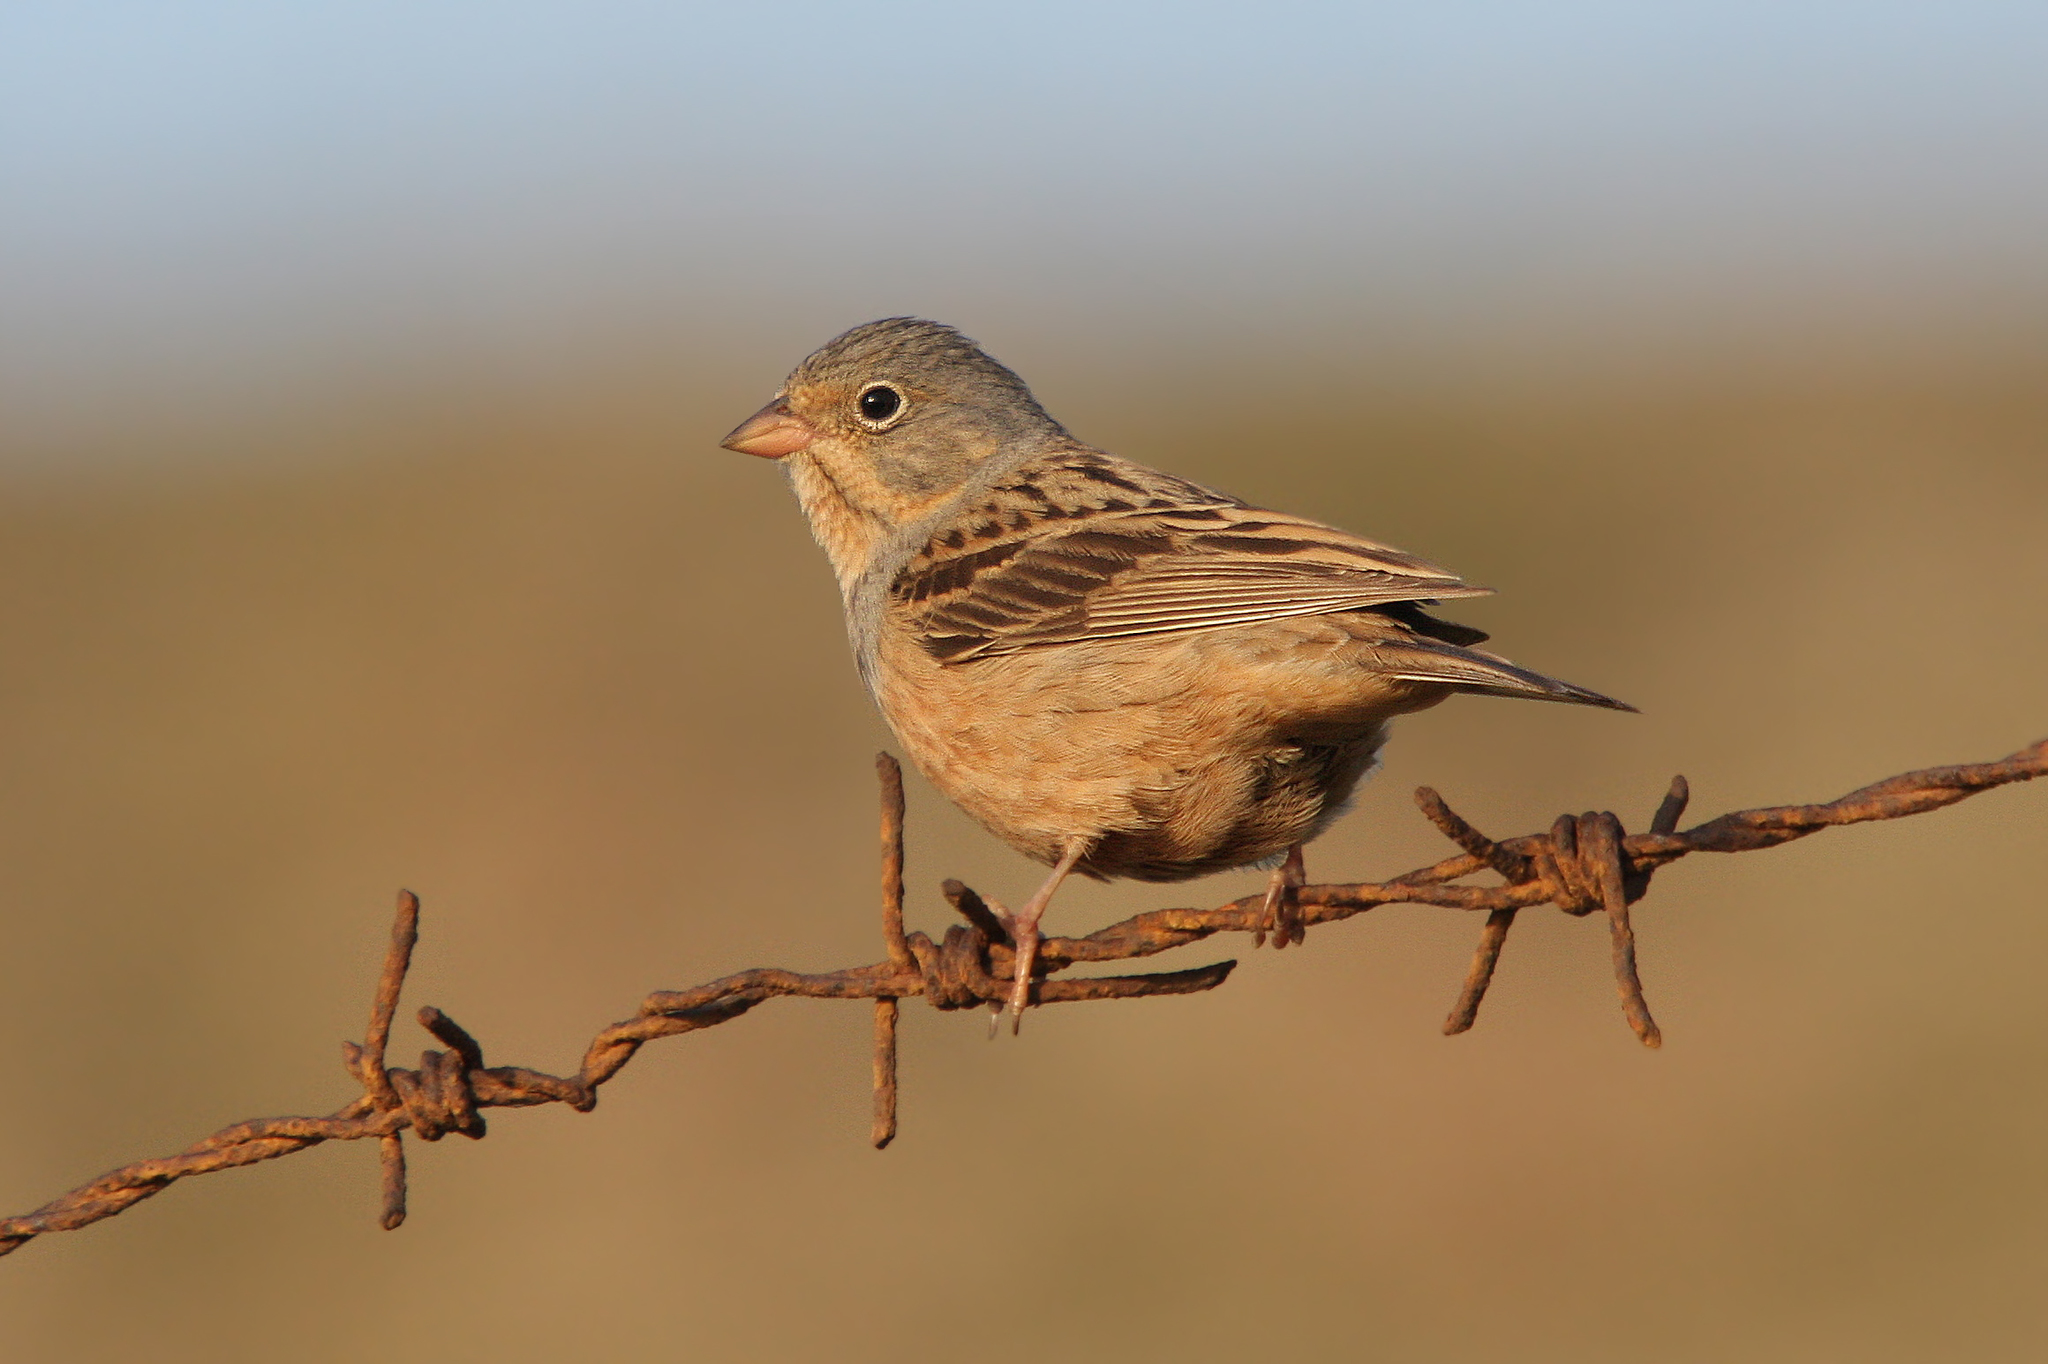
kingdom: Animalia
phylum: Chordata
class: Aves
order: Passeriformes
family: Emberizidae
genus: Emberiza
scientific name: Emberiza caesia
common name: Cretzschmar's bunting
